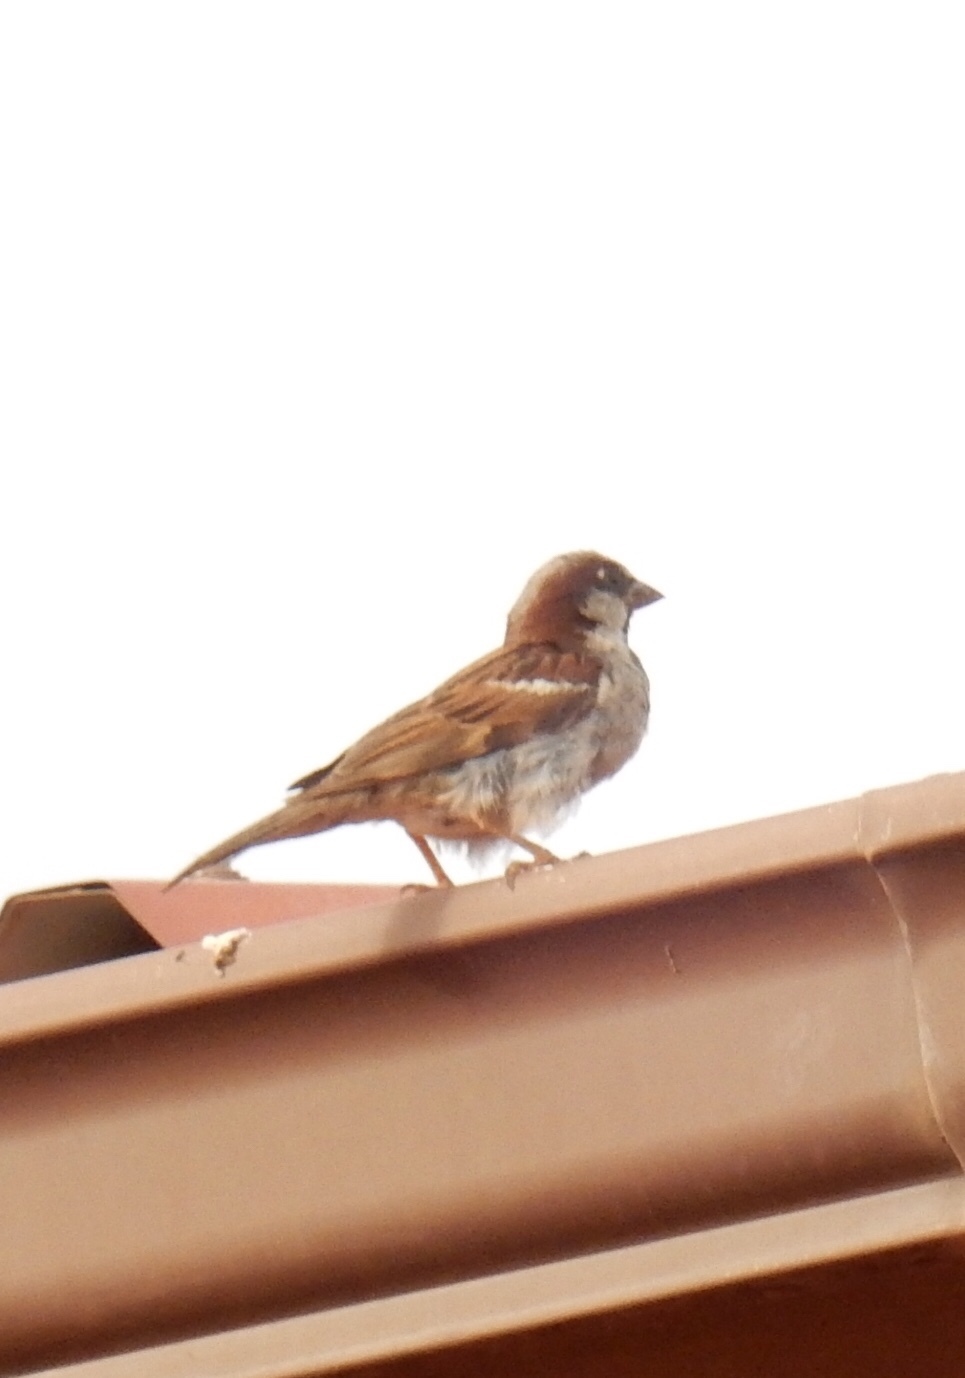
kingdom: Animalia
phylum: Chordata
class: Aves
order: Passeriformes
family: Passeridae
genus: Passer
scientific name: Passer domesticus
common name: House sparrow
